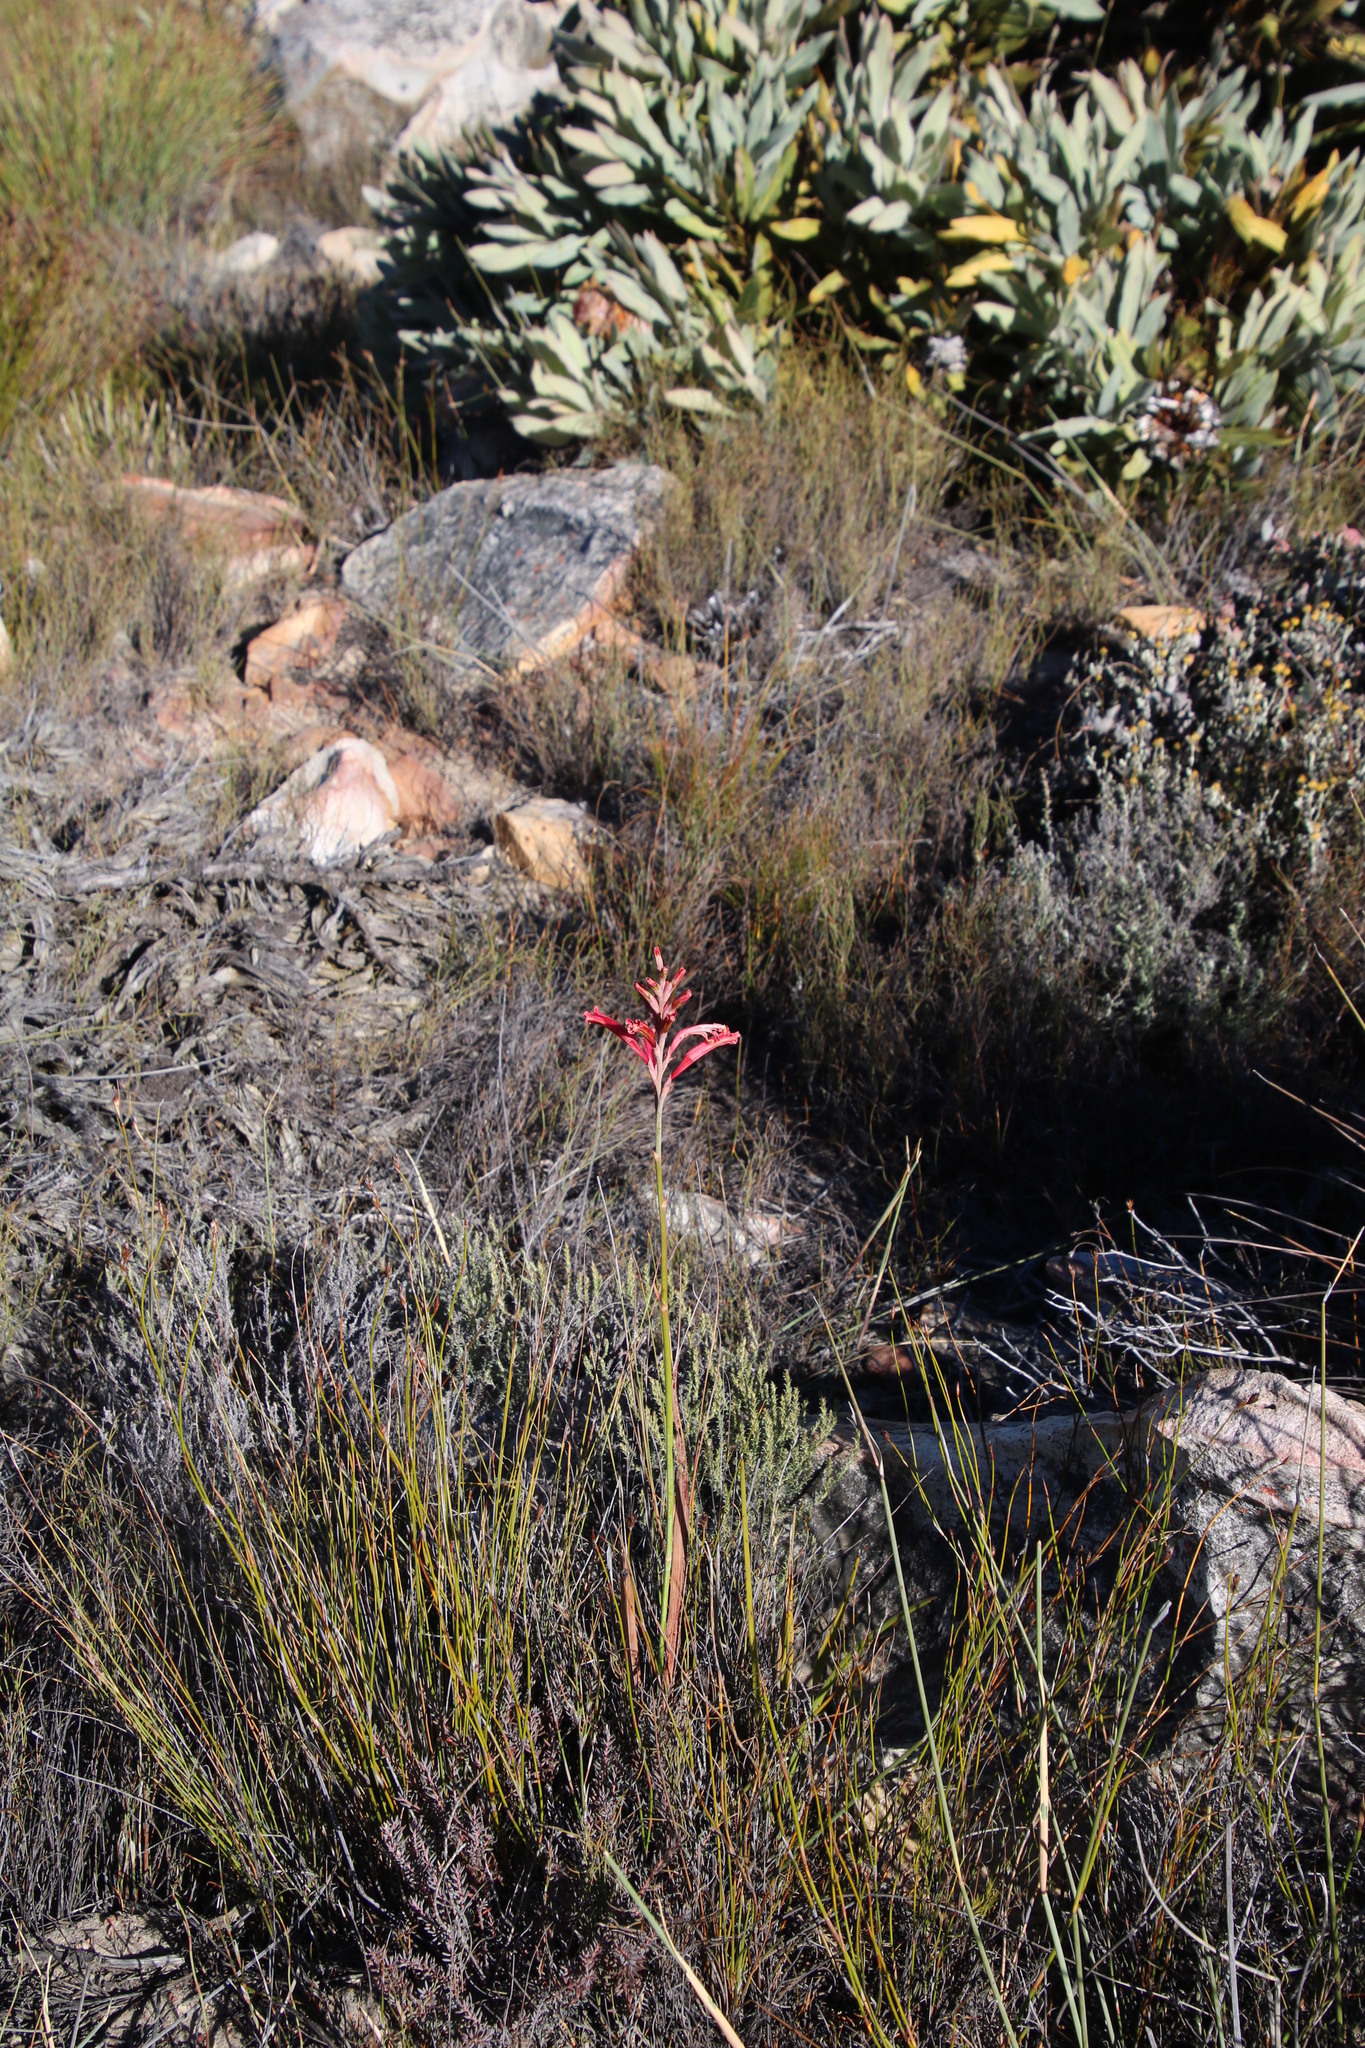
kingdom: Plantae
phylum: Tracheophyta
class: Liliopsida
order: Asparagales
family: Iridaceae
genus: Tritoniopsis
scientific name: Tritoniopsis antholyza
